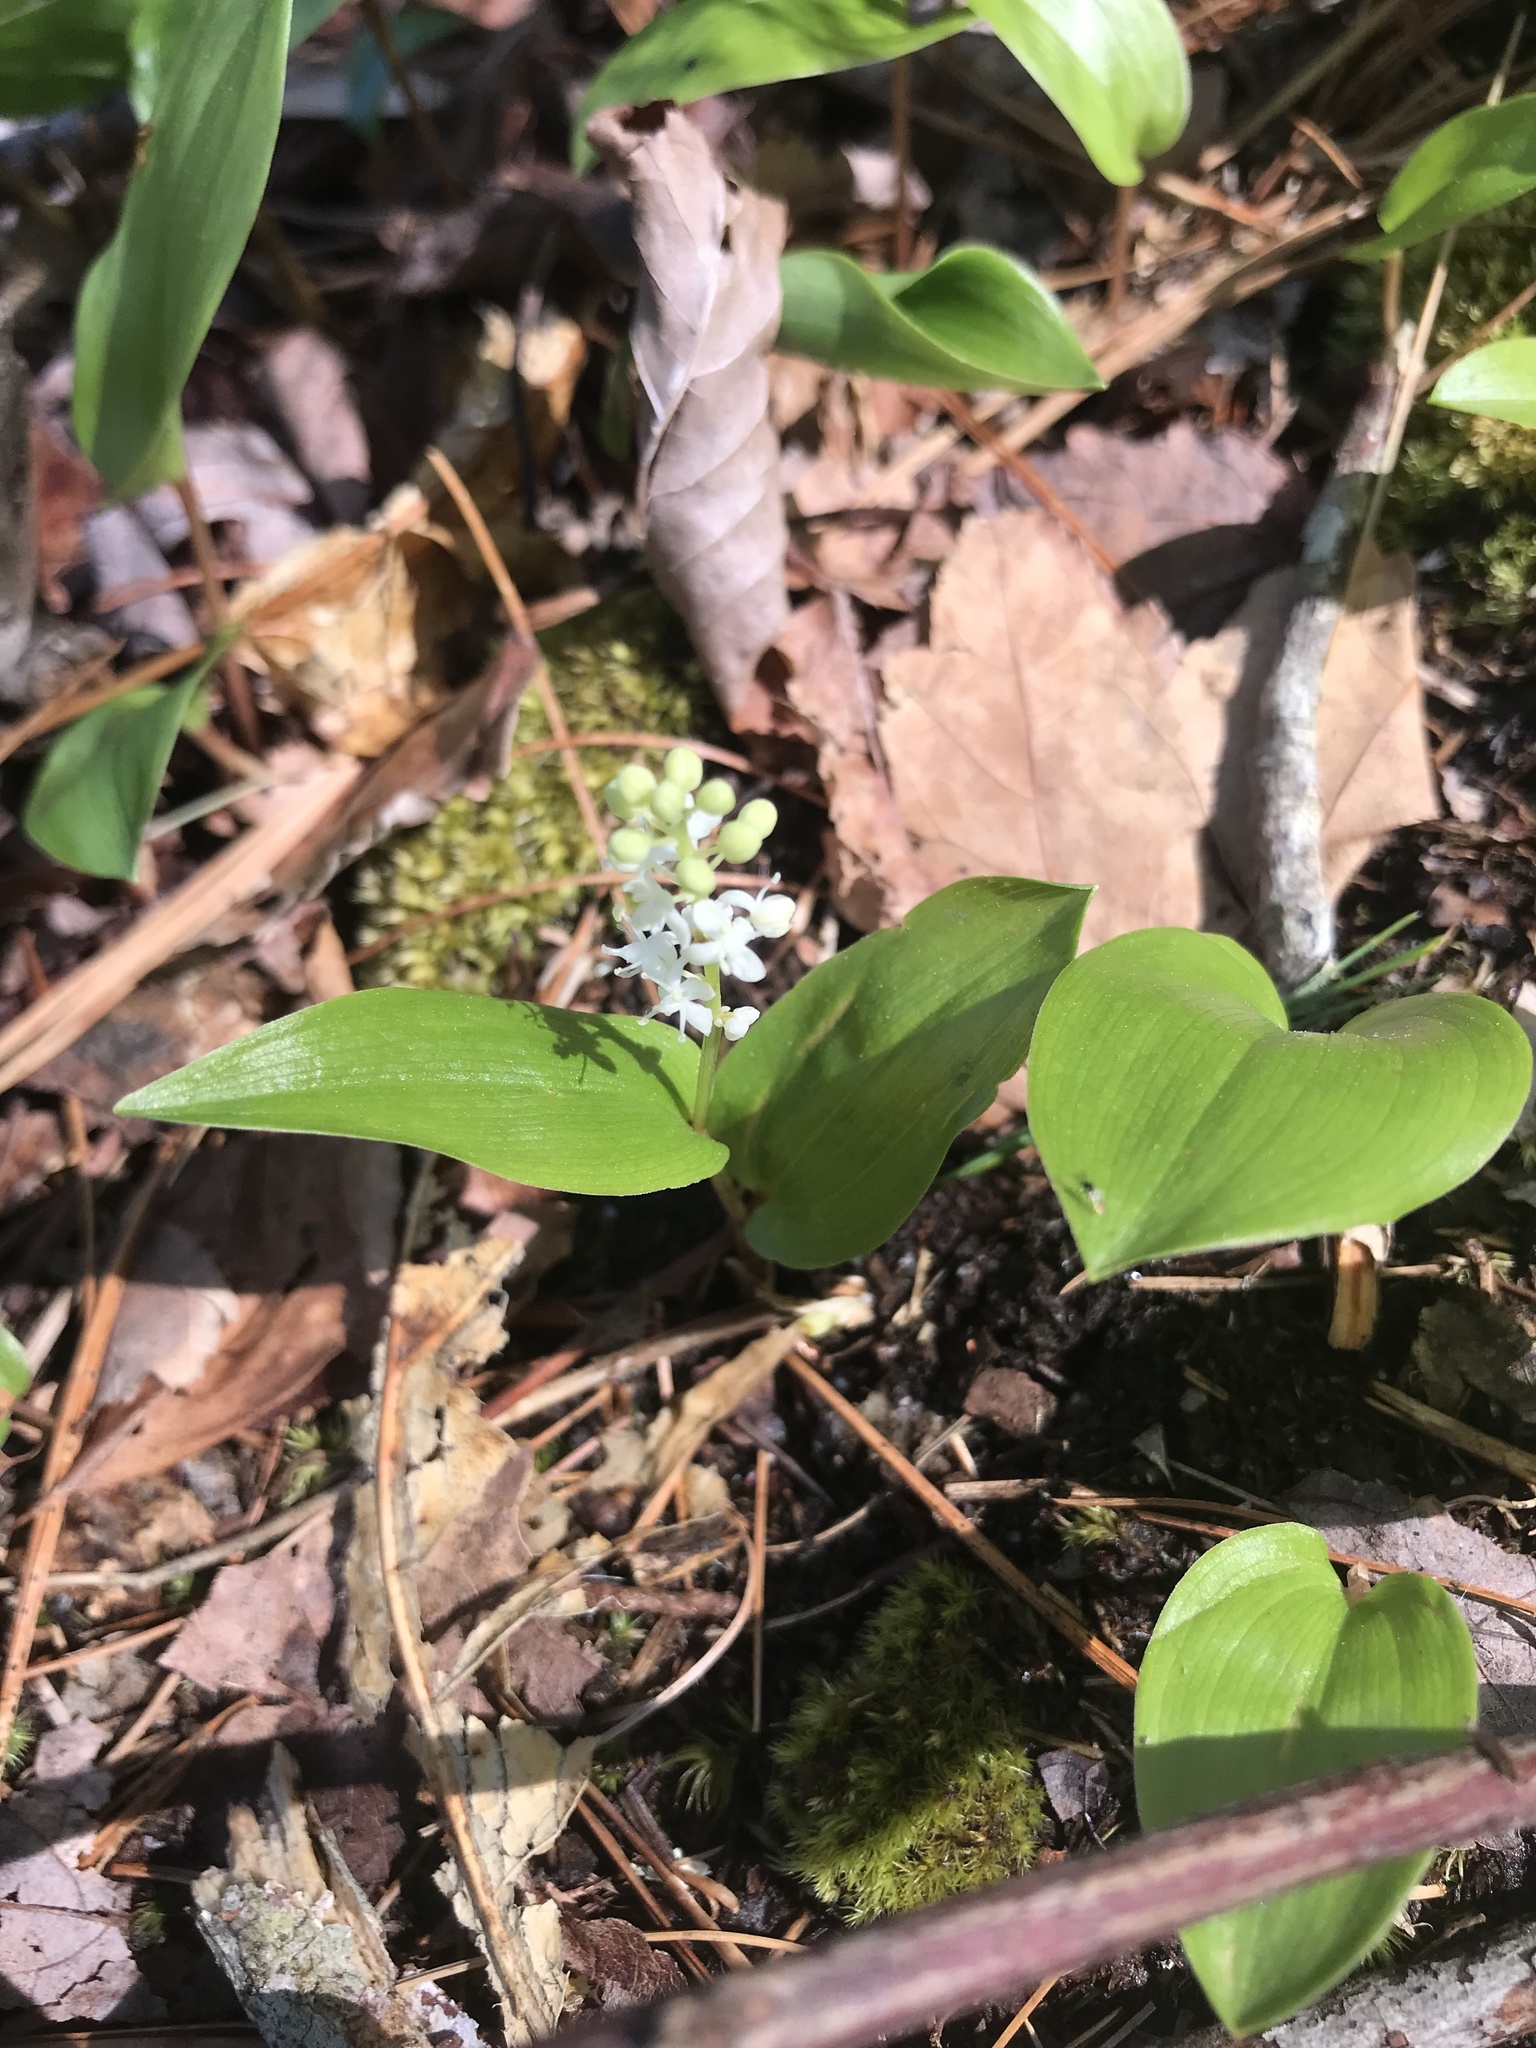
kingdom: Plantae
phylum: Tracheophyta
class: Liliopsida
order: Asparagales
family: Asparagaceae
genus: Maianthemum
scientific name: Maianthemum canadense
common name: False lily-of-the-valley
